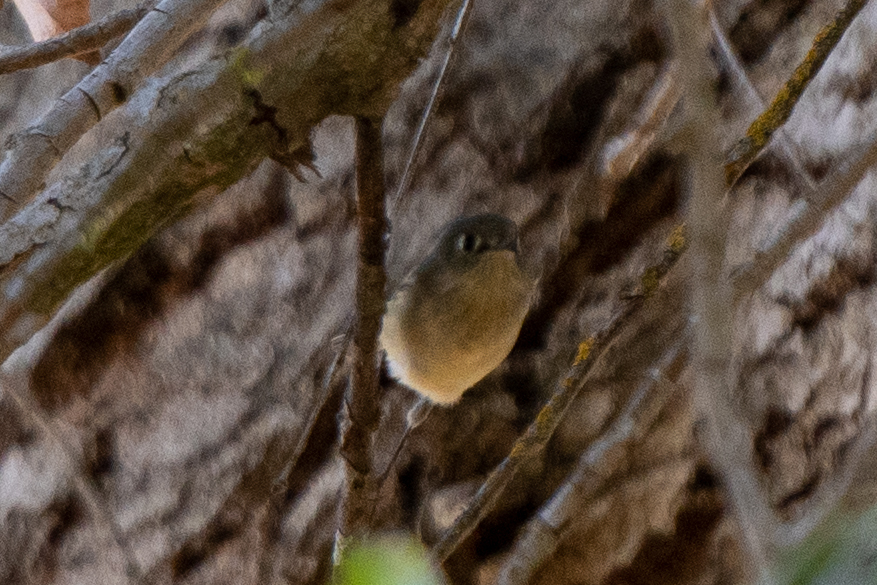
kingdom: Animalia
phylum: Chordata
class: Aves
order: Passeriformes
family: Regulidae
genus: Regulus
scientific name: Regulus calendula
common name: Ruby-crowned kinglet
